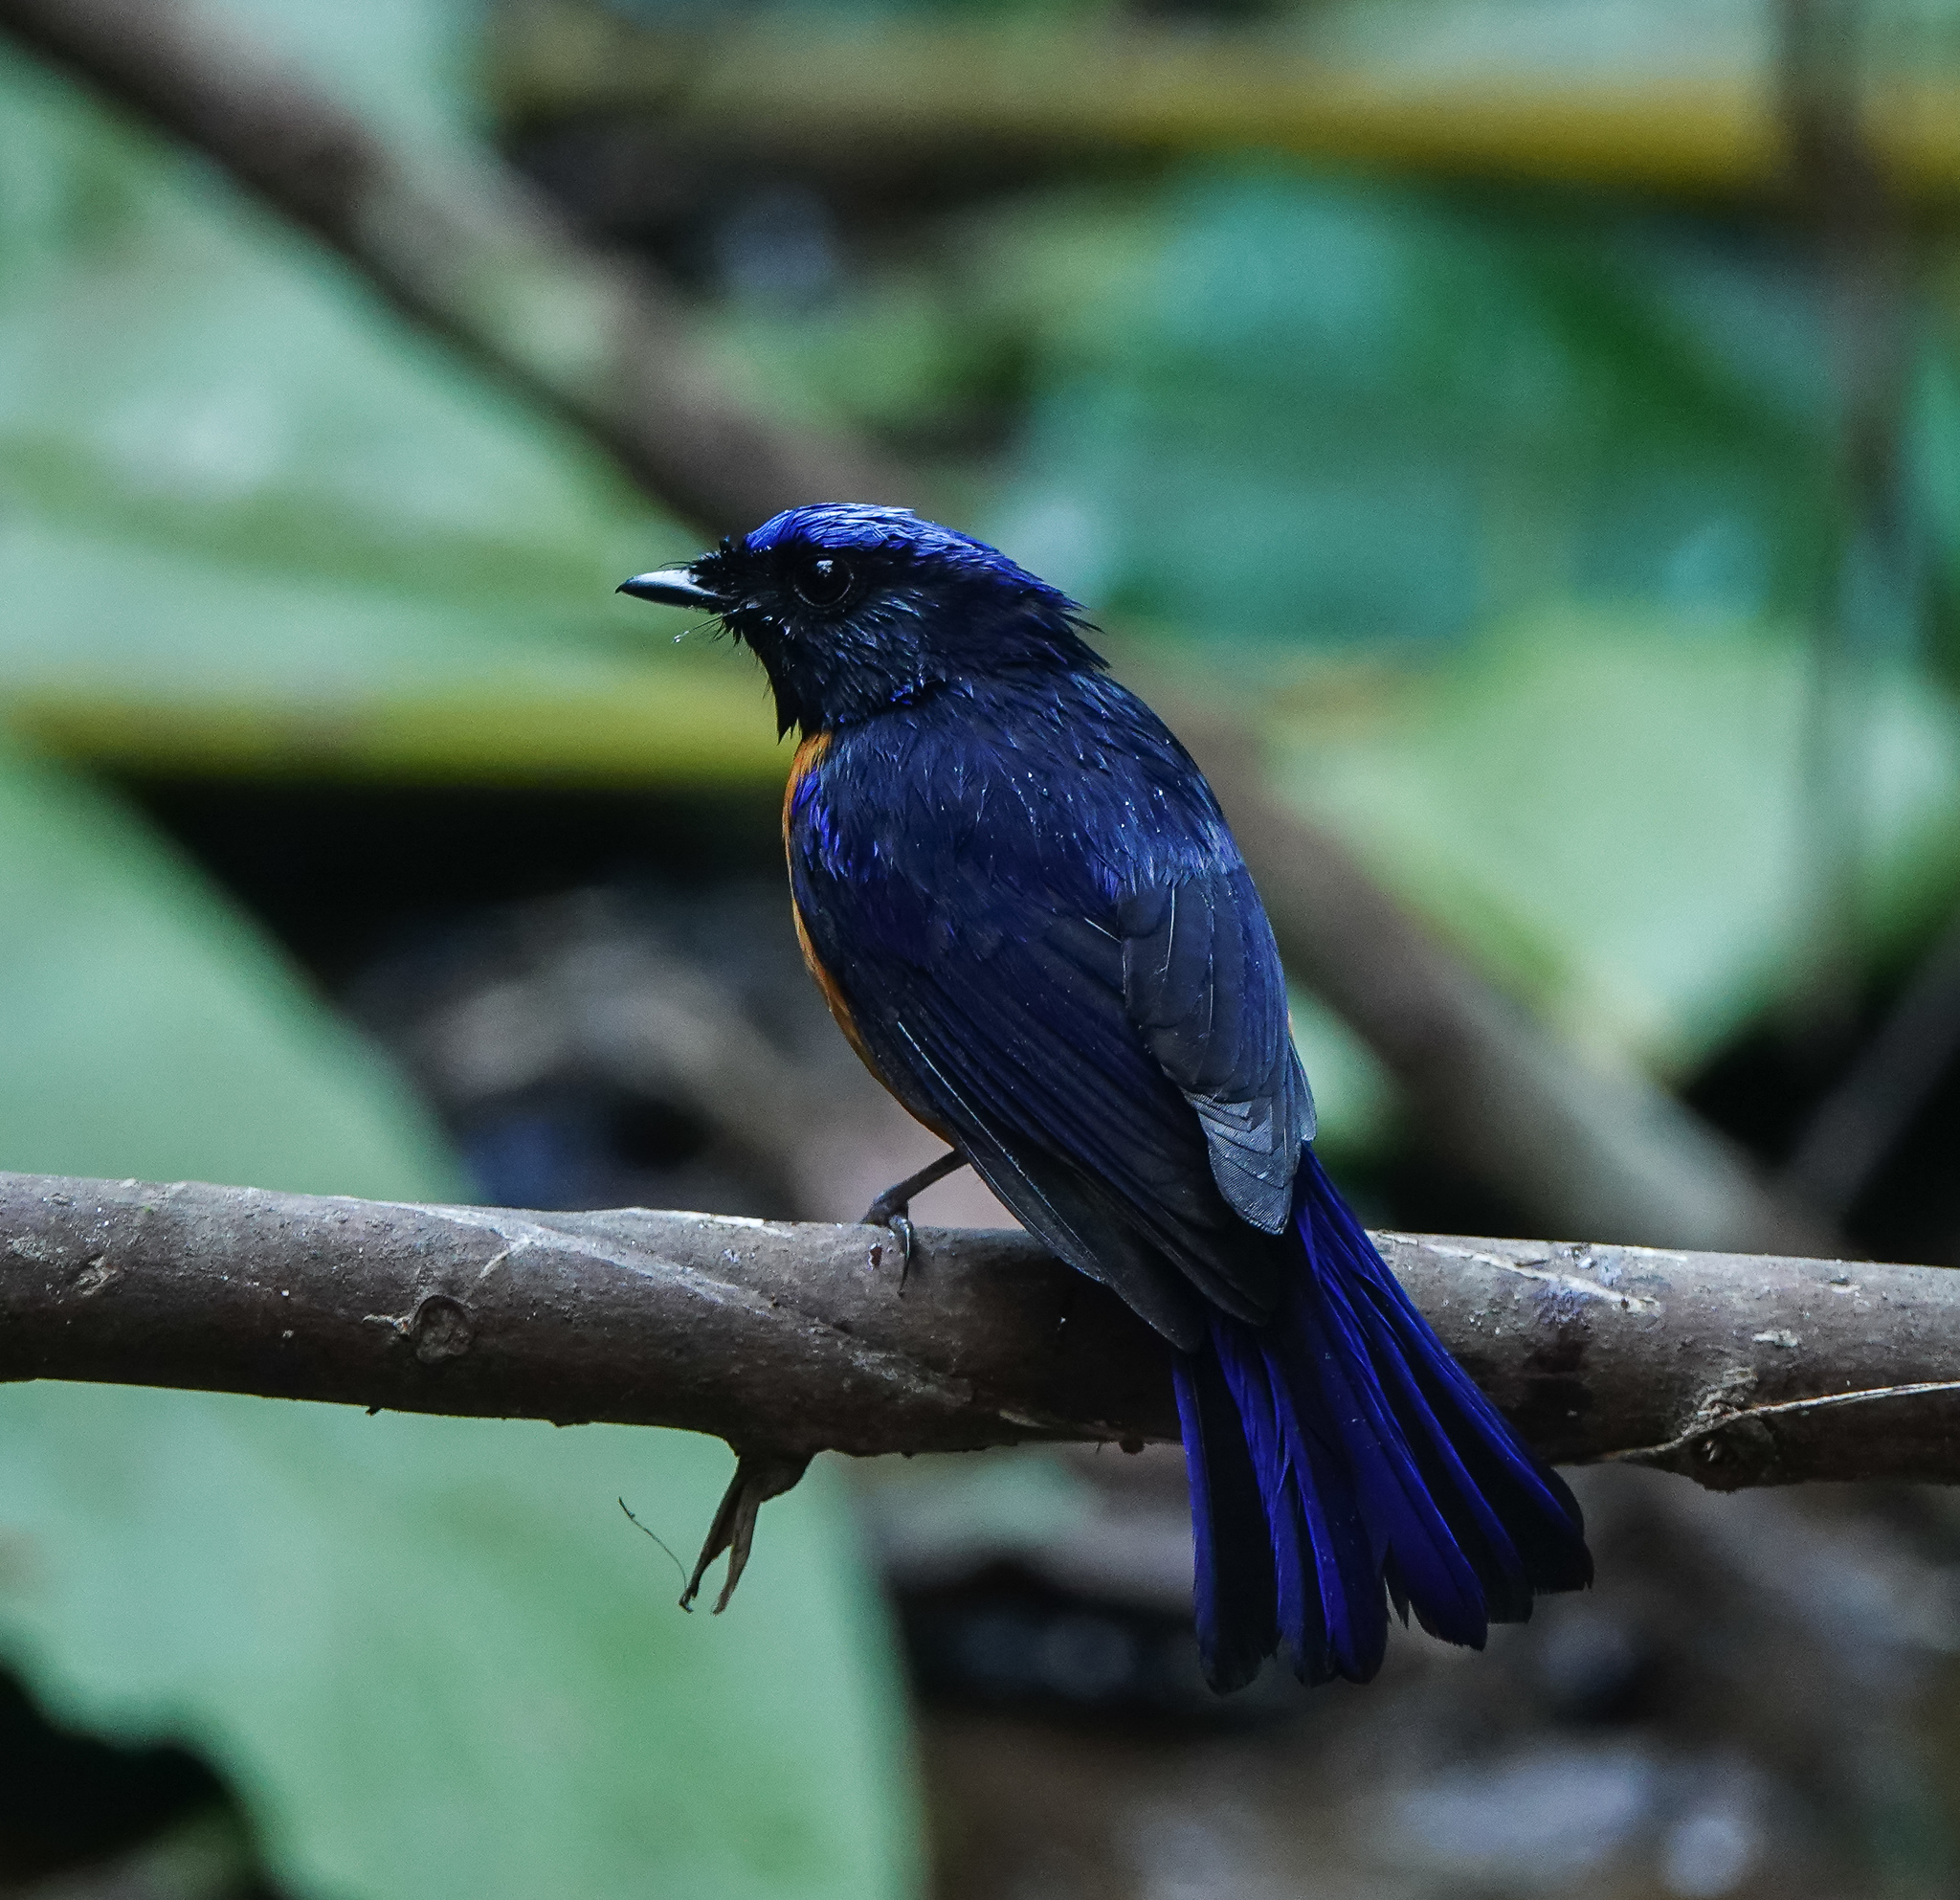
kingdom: Animalia
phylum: Chordata
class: Aves
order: Passeriformes
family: Muscicapidae
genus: Niltava
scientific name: Niltava sundara
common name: Rufous-bellied niltava
